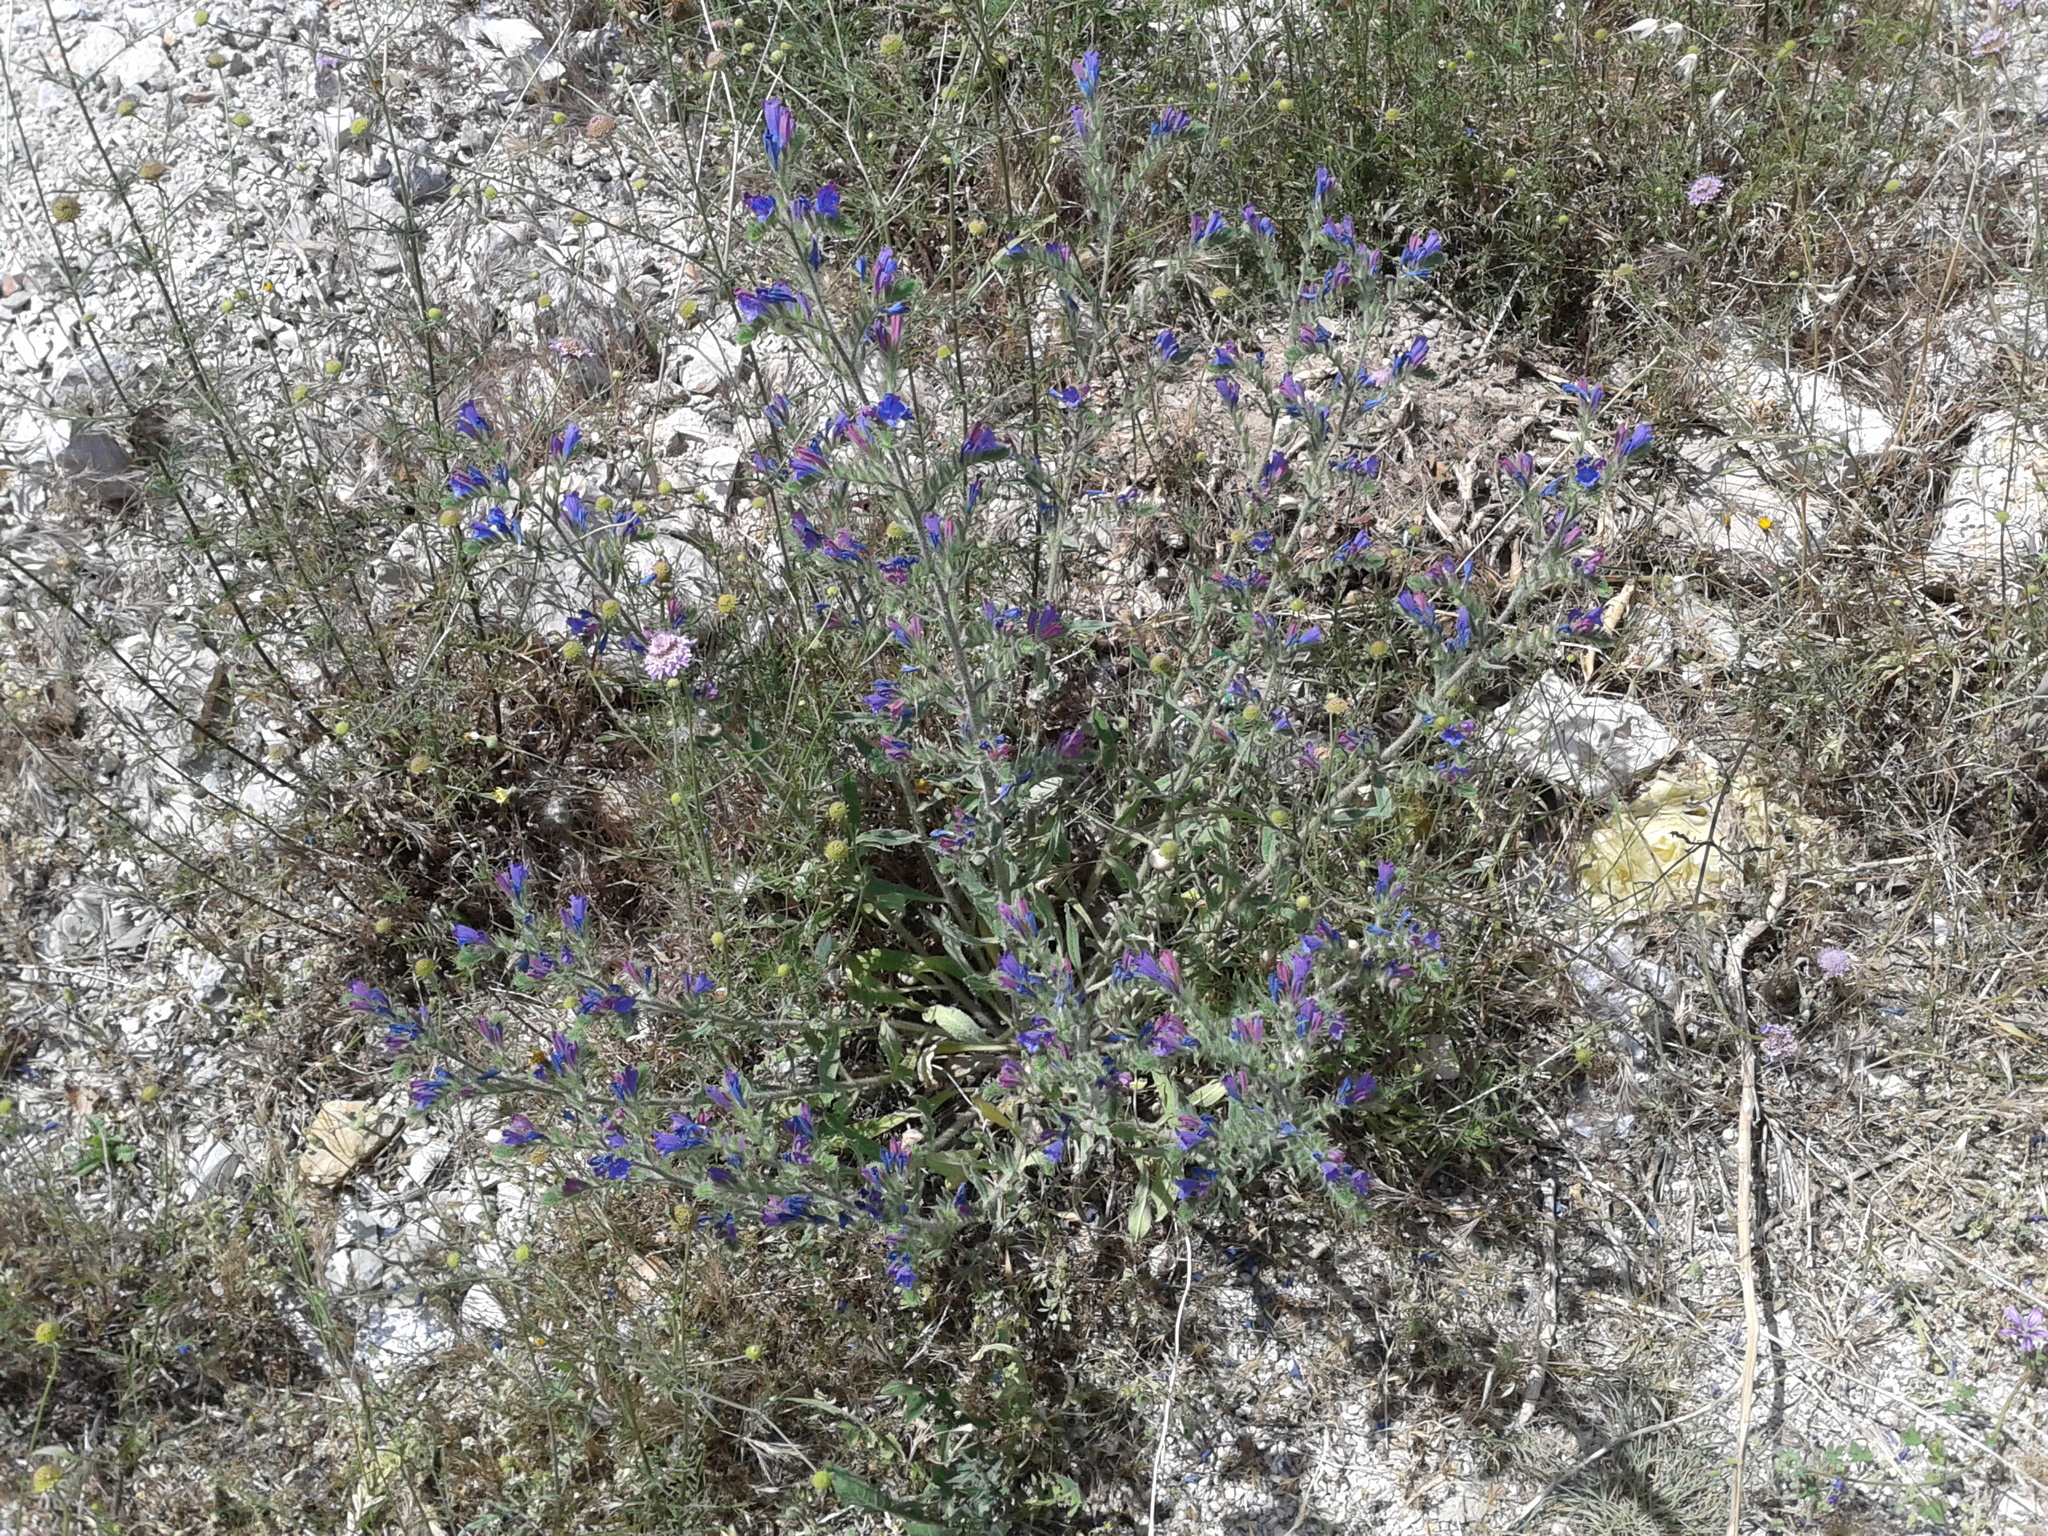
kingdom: Plantae
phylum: Tracheophyta
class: Magnoliopsida
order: Boraginales
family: Boraginaceae
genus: Echium
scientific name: Echium vulgare
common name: Common viper's bugloss
